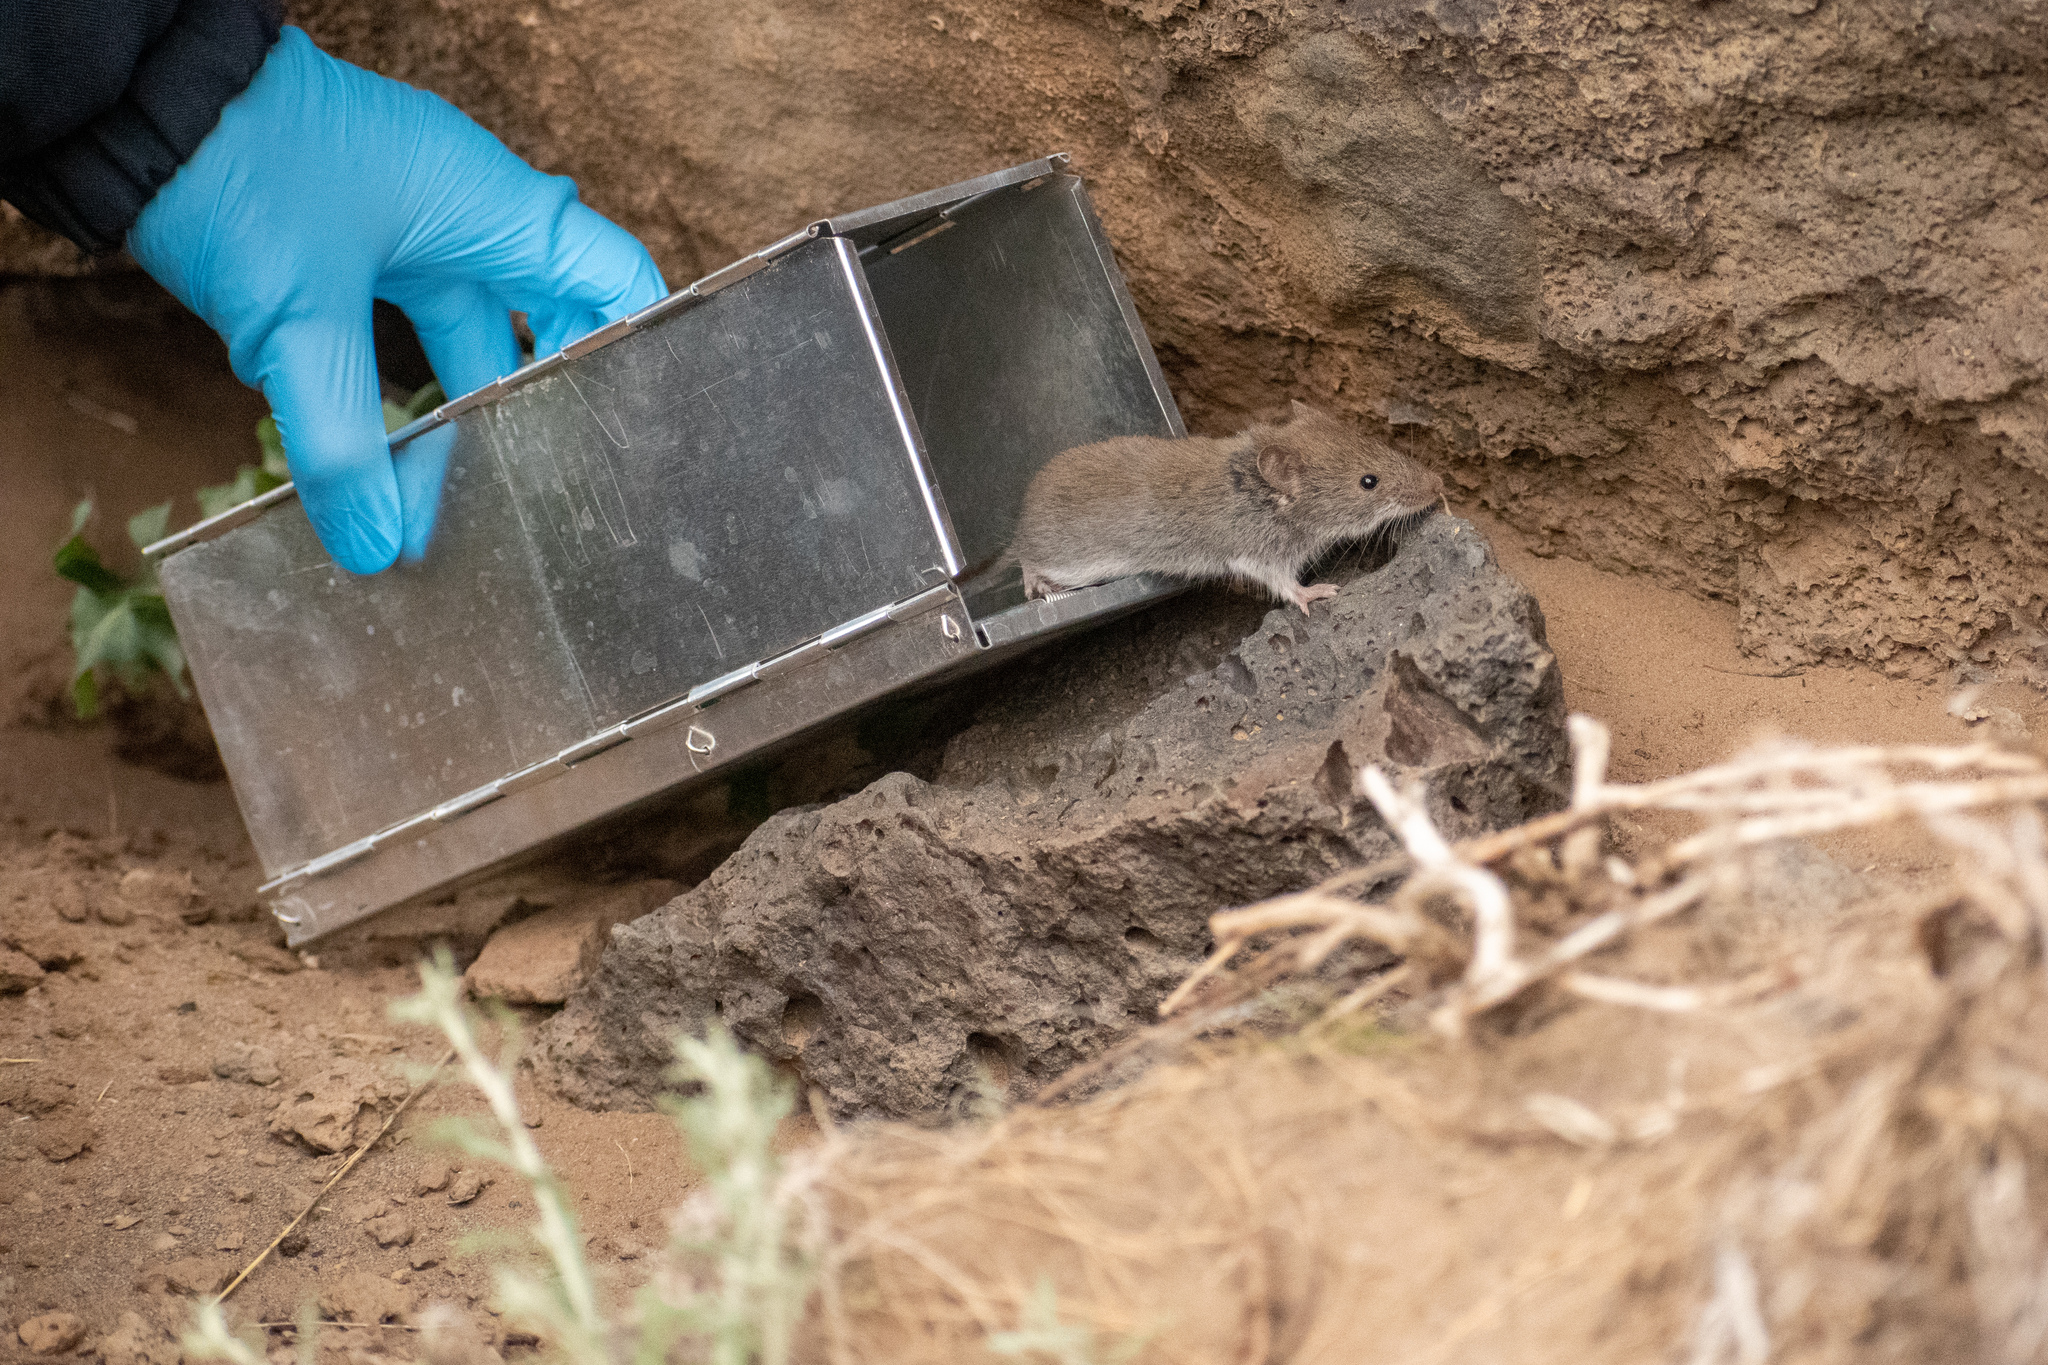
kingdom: Animalia
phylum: Chordata
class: Mammalia
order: Rodentia
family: Cricetidae
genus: Abrothrix
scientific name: Abrothrix olivaceus
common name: Olive-colored akodont
